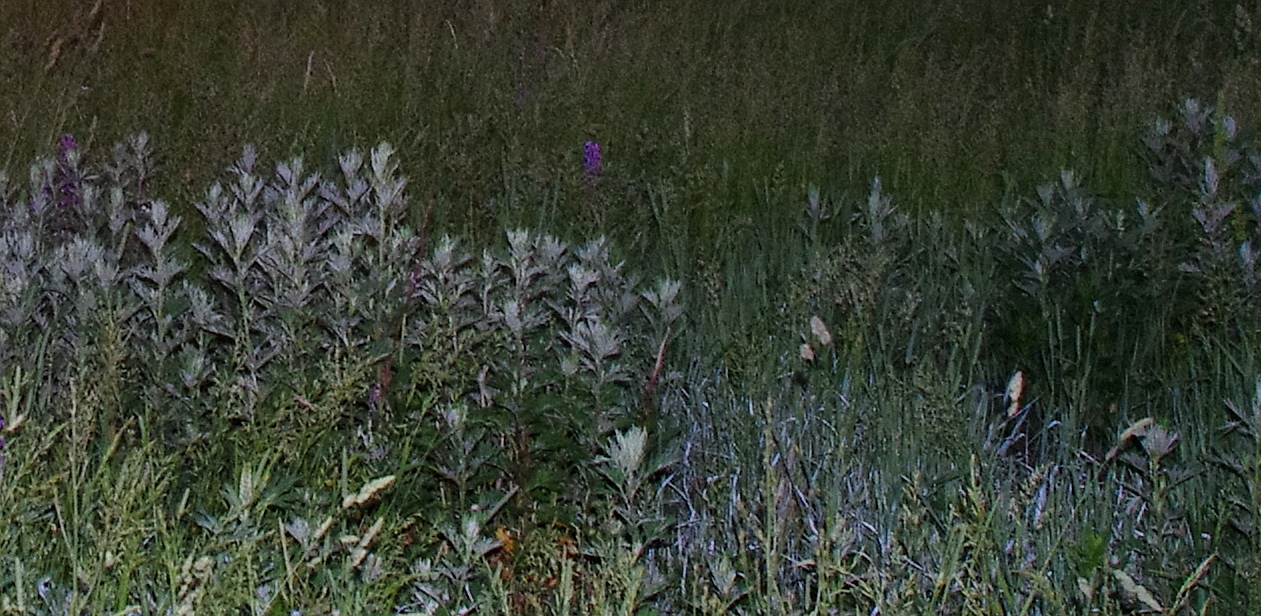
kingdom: Plantae
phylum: Tracheophyta
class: Magnoliopsida
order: Asterales
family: Asteraceae
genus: Artemisia
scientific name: Artemisia vulgaris
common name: Mugwort
